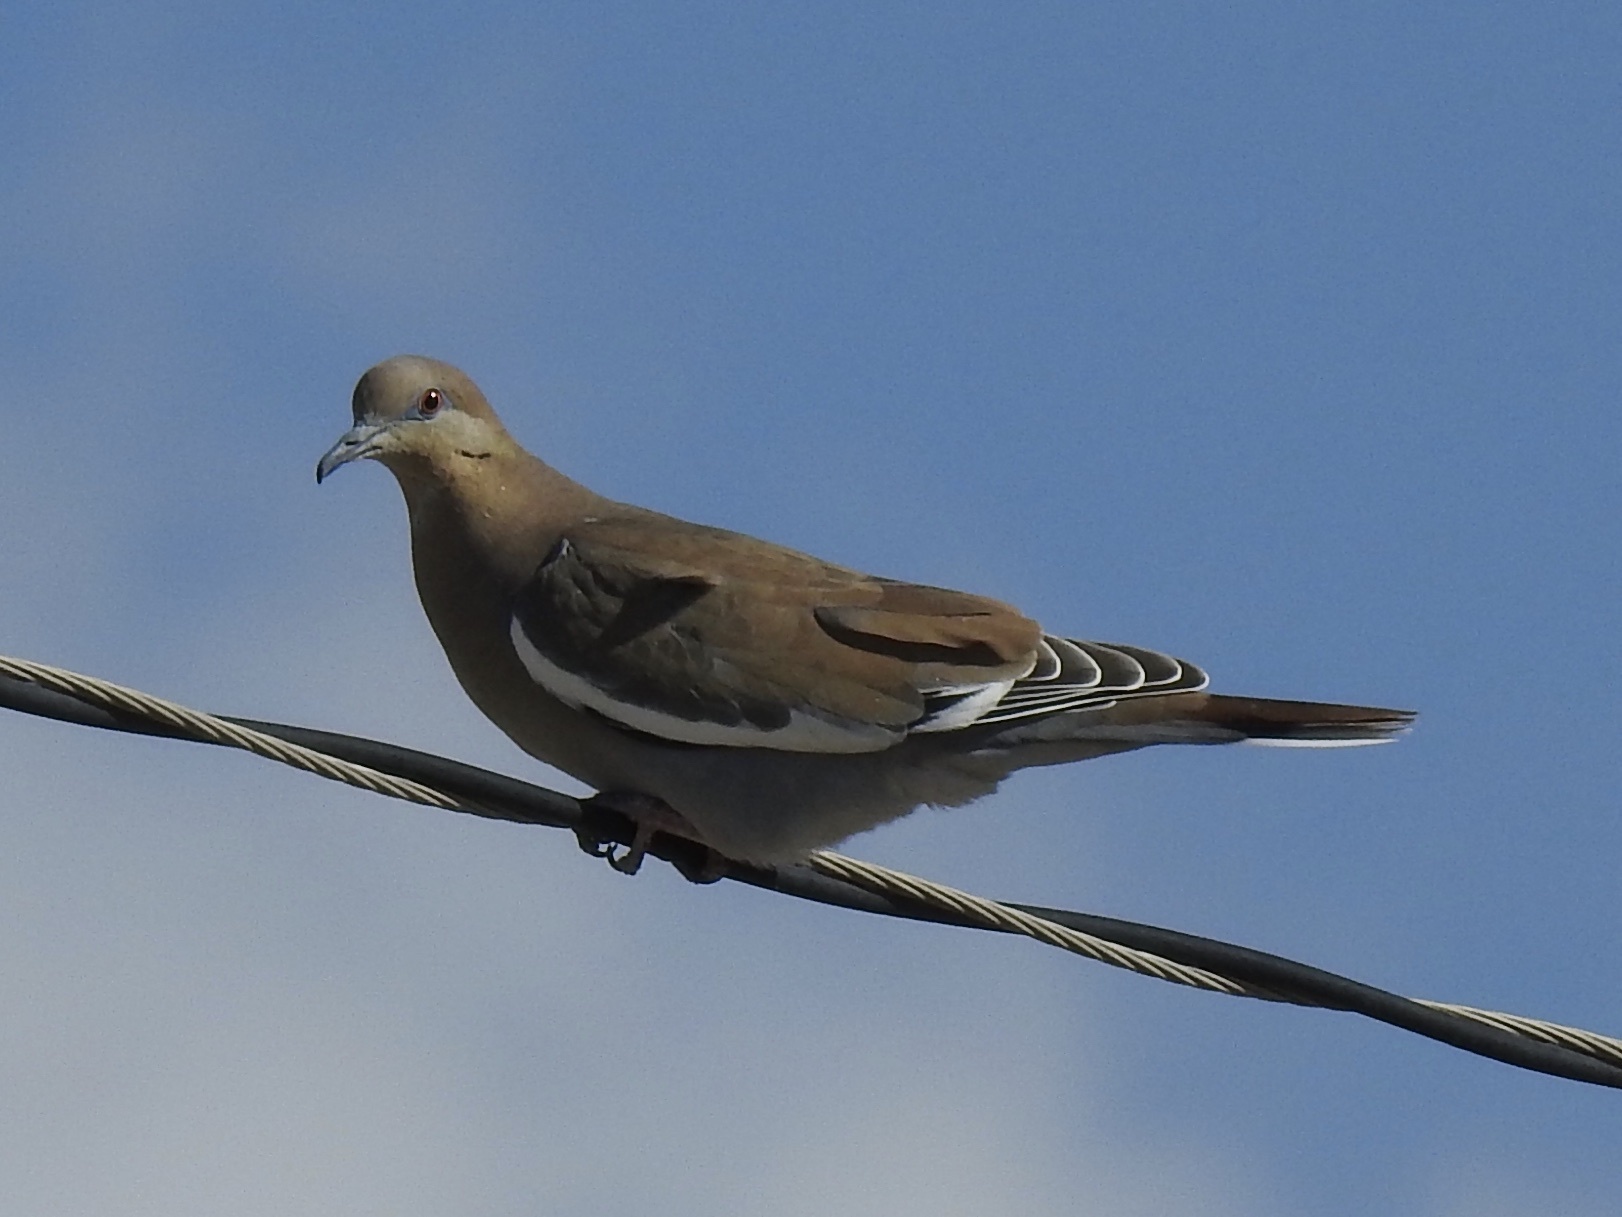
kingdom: Animalia
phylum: Chordata
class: Aves
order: Columbiformes
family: Columbidae
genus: Zenaida
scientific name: Zenaida asiatica
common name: White-winged dove
